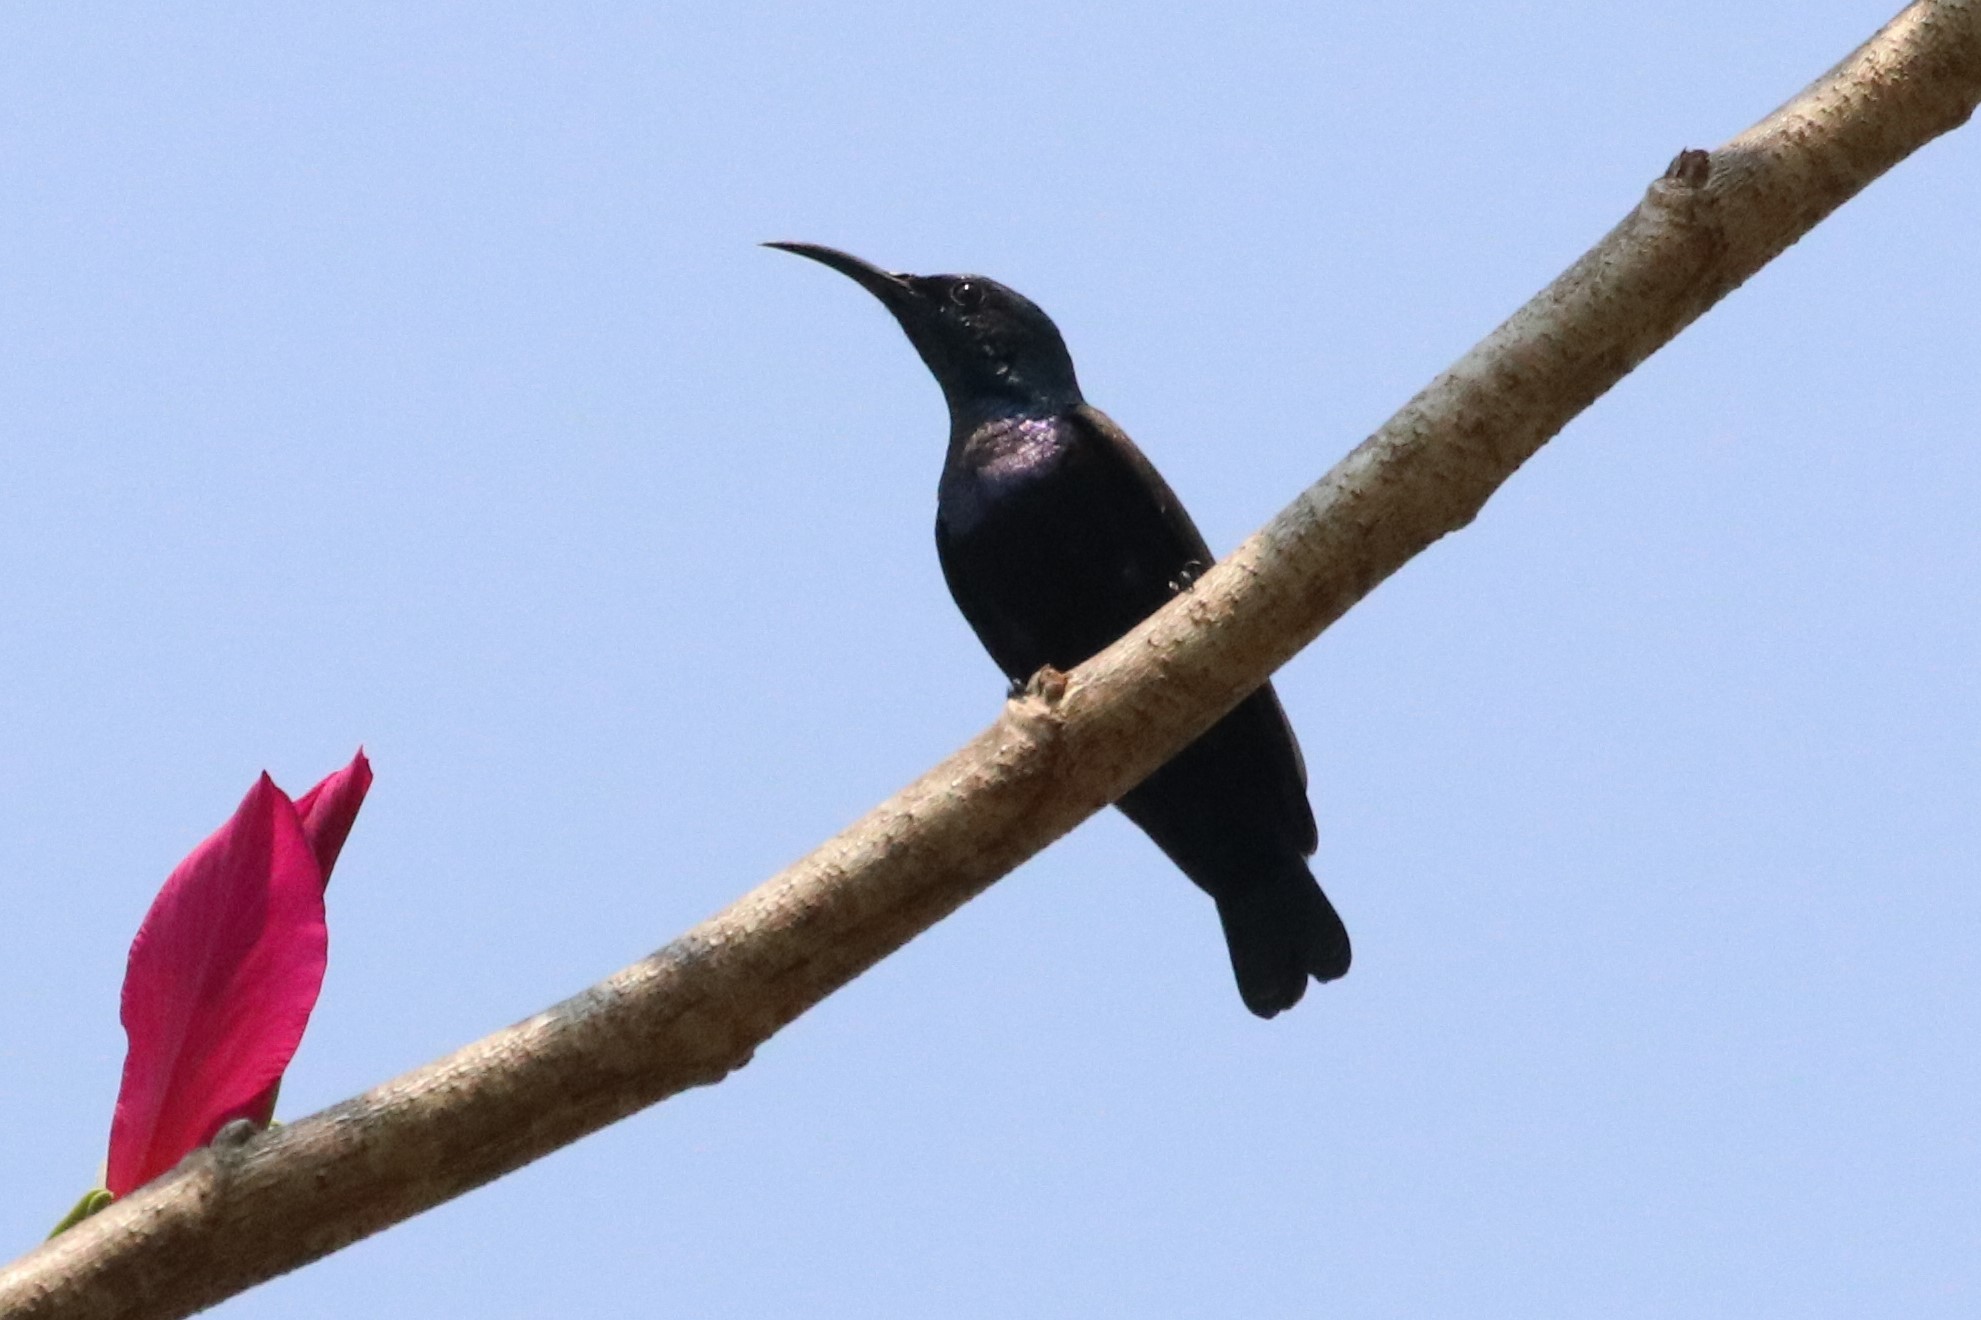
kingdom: Animalia
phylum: Chordata
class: Aves
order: Passeriformes
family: Nectariniidae
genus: Cinnyris
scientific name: Cinnyris asiaticus
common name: Purple sunbird
